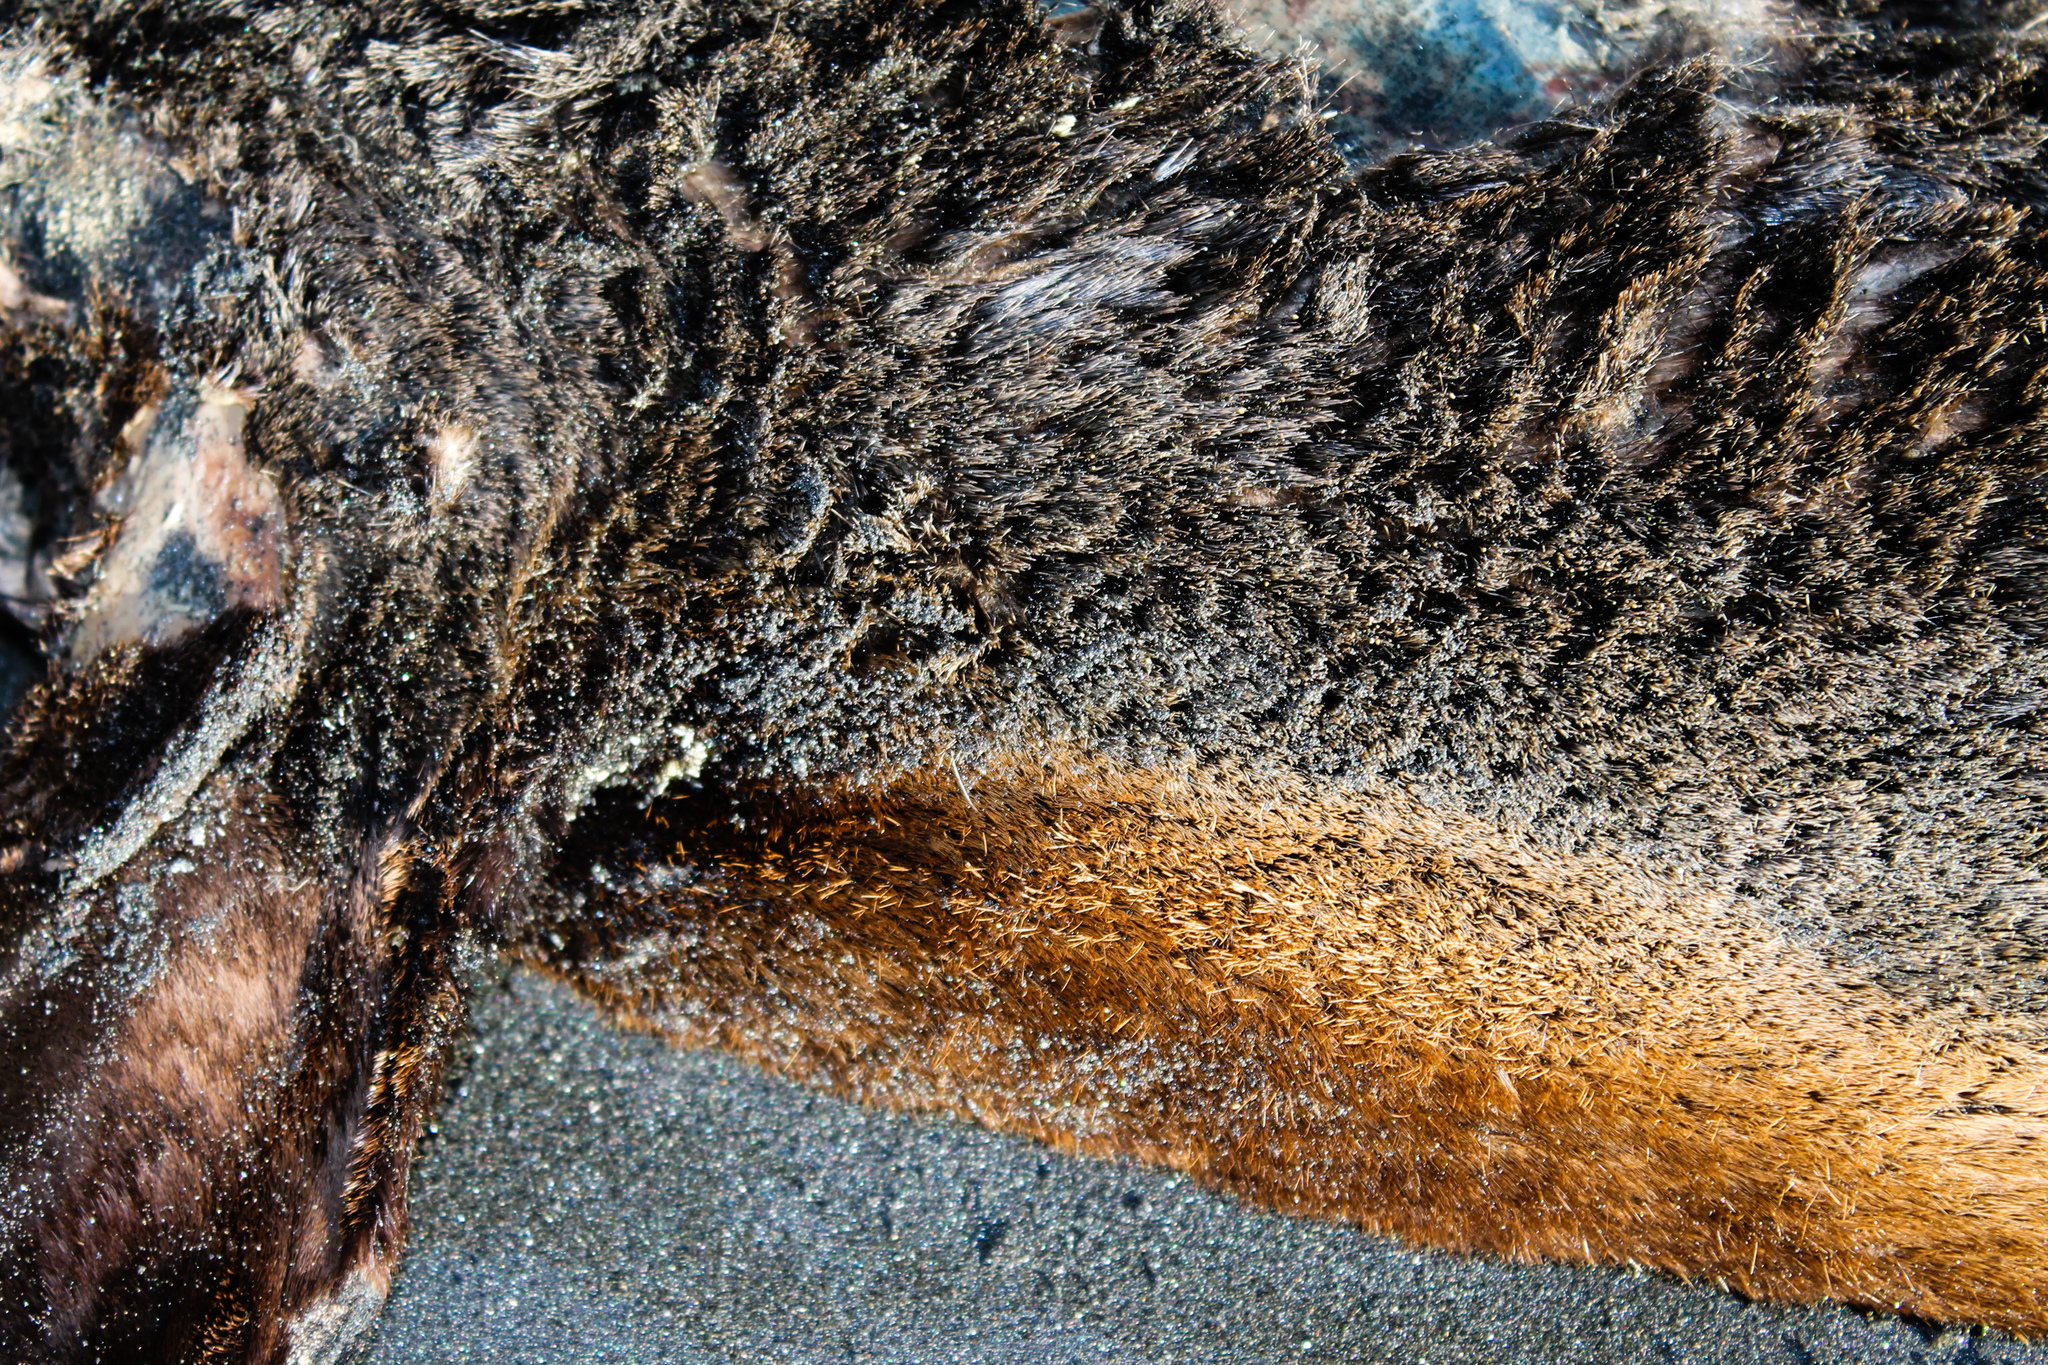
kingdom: Animalia
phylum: Chordata
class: Mammalia
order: Carnivora
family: Otariidae
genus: Arctocephalus
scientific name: Arctocephalus forsteri
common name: New zealand fur seal
